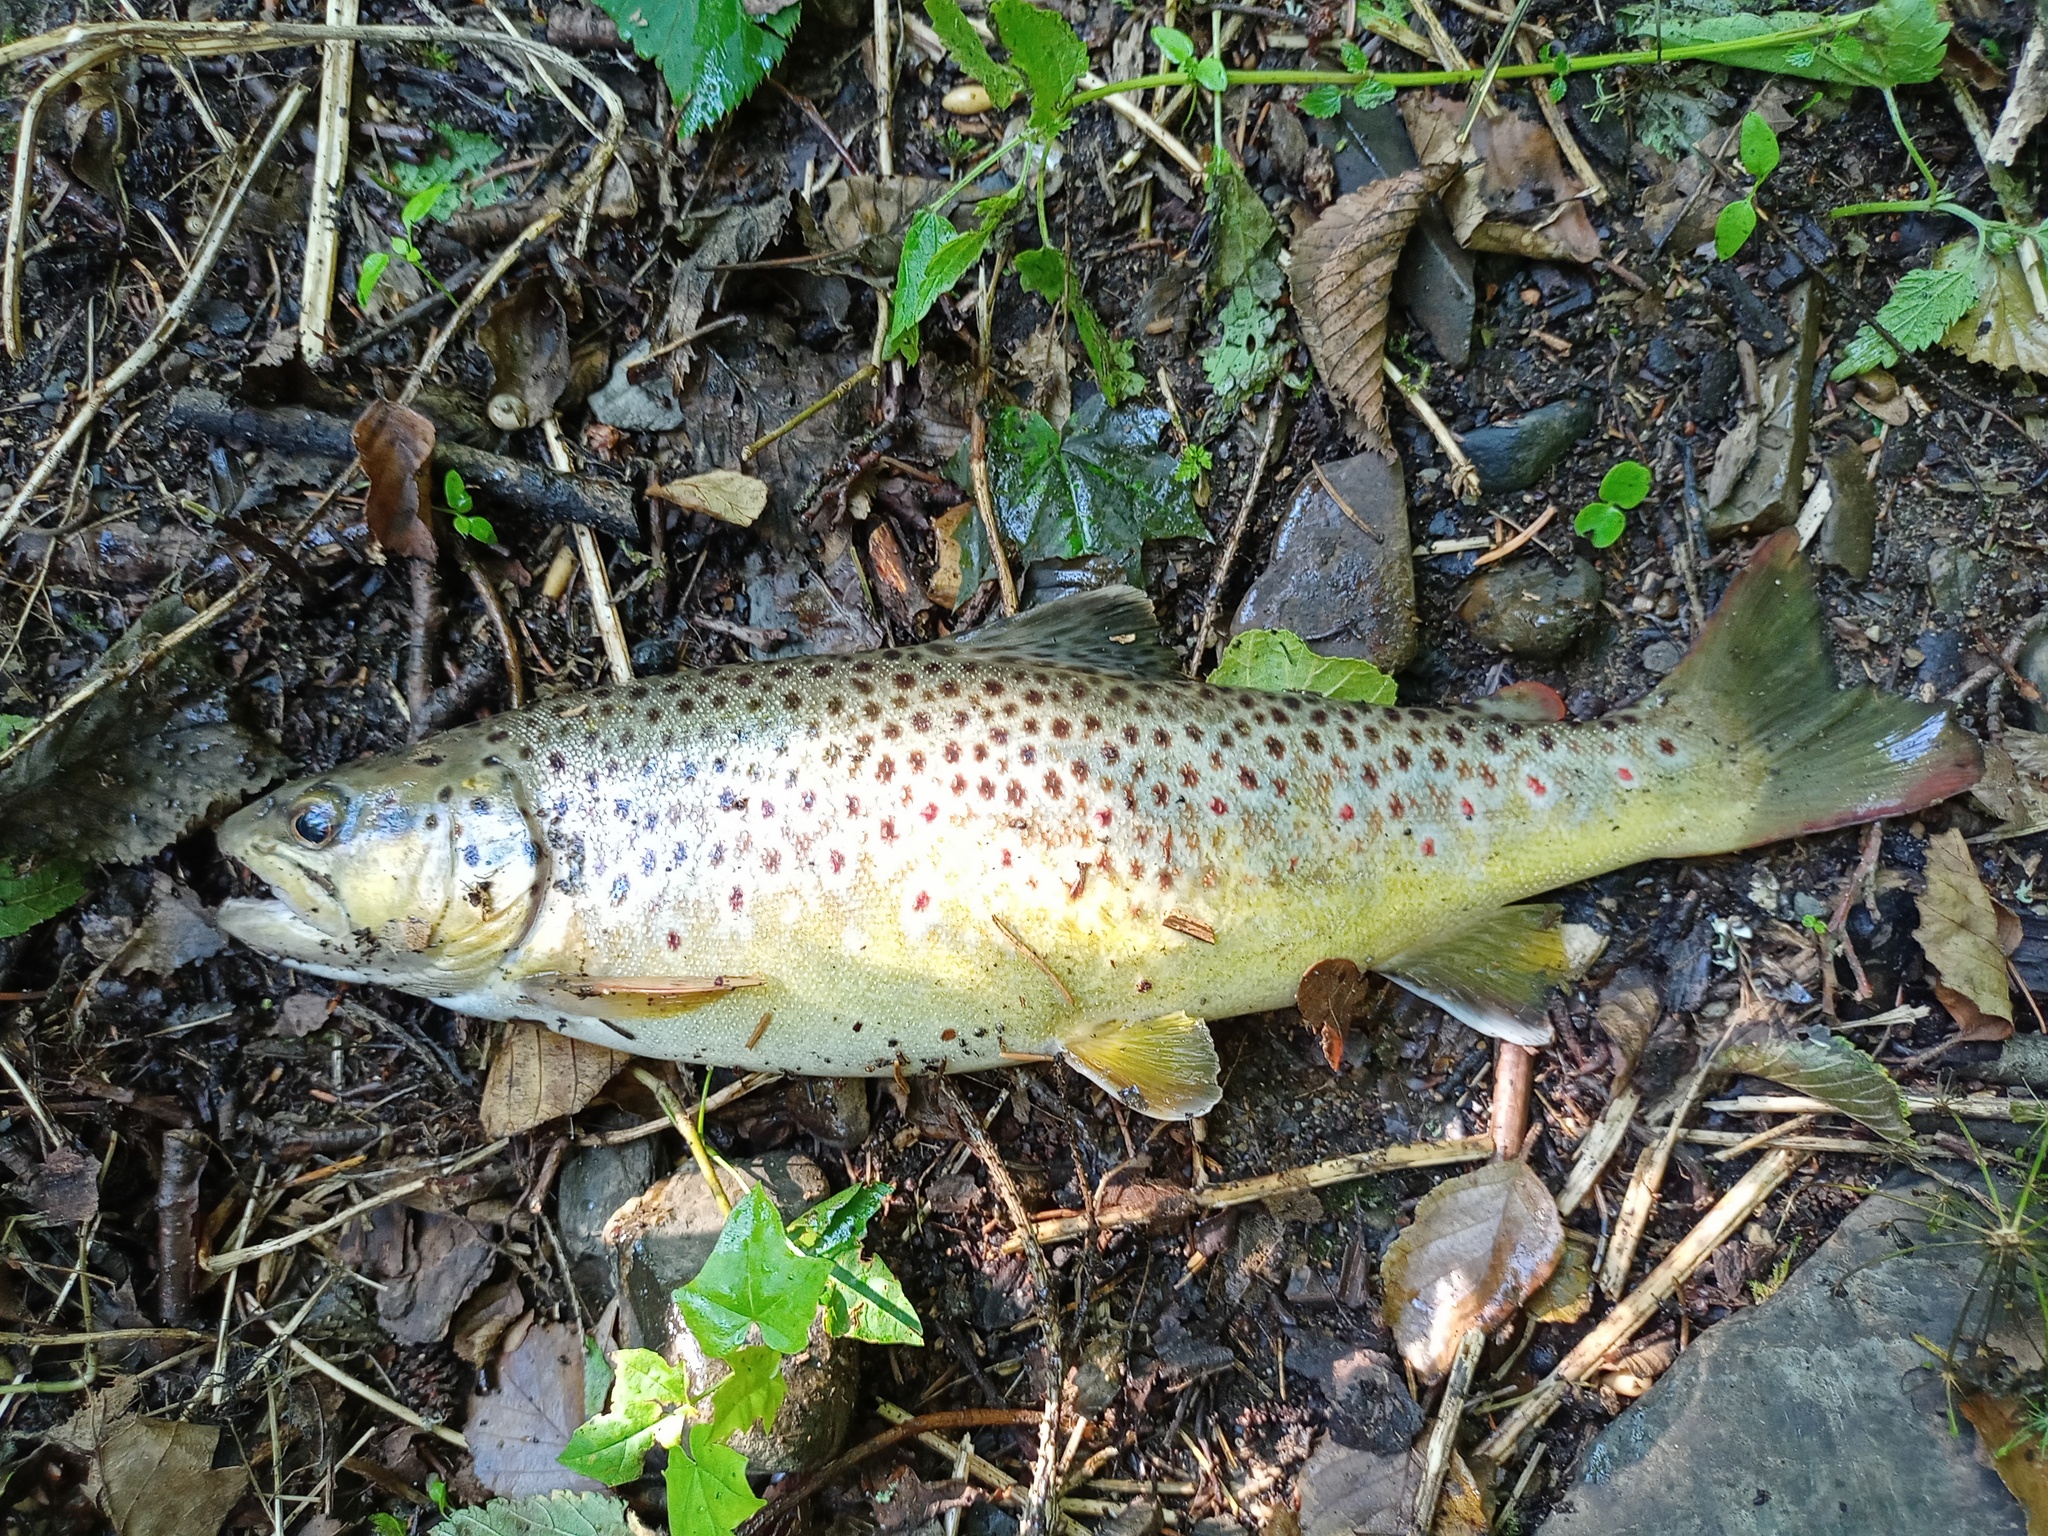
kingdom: Animalia
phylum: Chordata
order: Salmoniformes
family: Salmonidae
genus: Salmo
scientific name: Salmo trutta
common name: Brown trout
